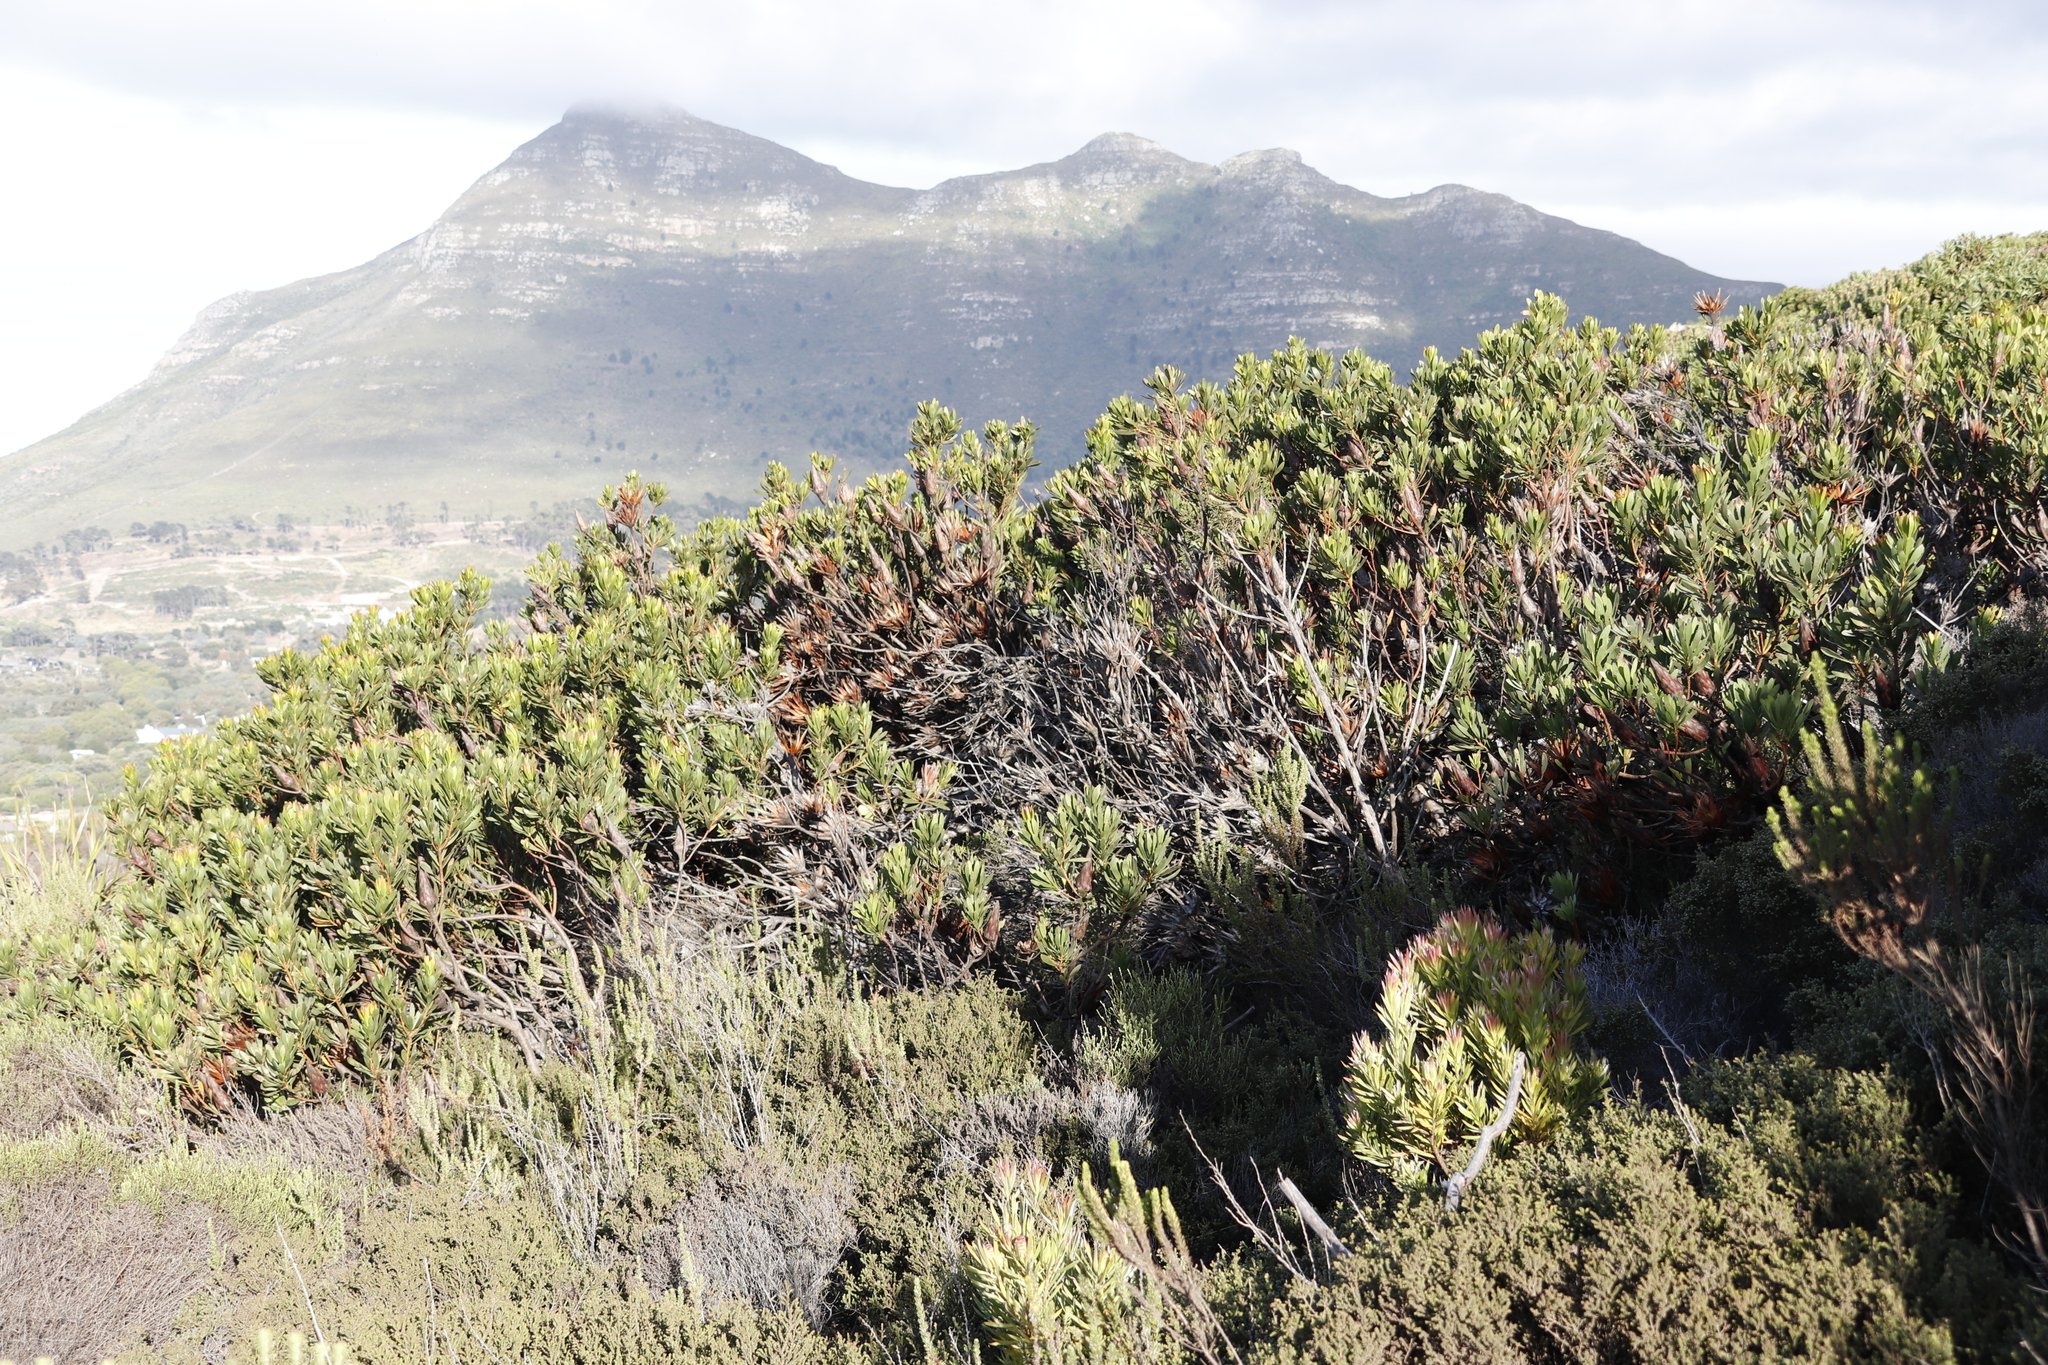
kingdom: Plantae
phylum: Tracheophyta
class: Magnoliopsida
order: Proteales
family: Proteaceae
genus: Protea
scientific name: Protea repens
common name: Sugarbush
